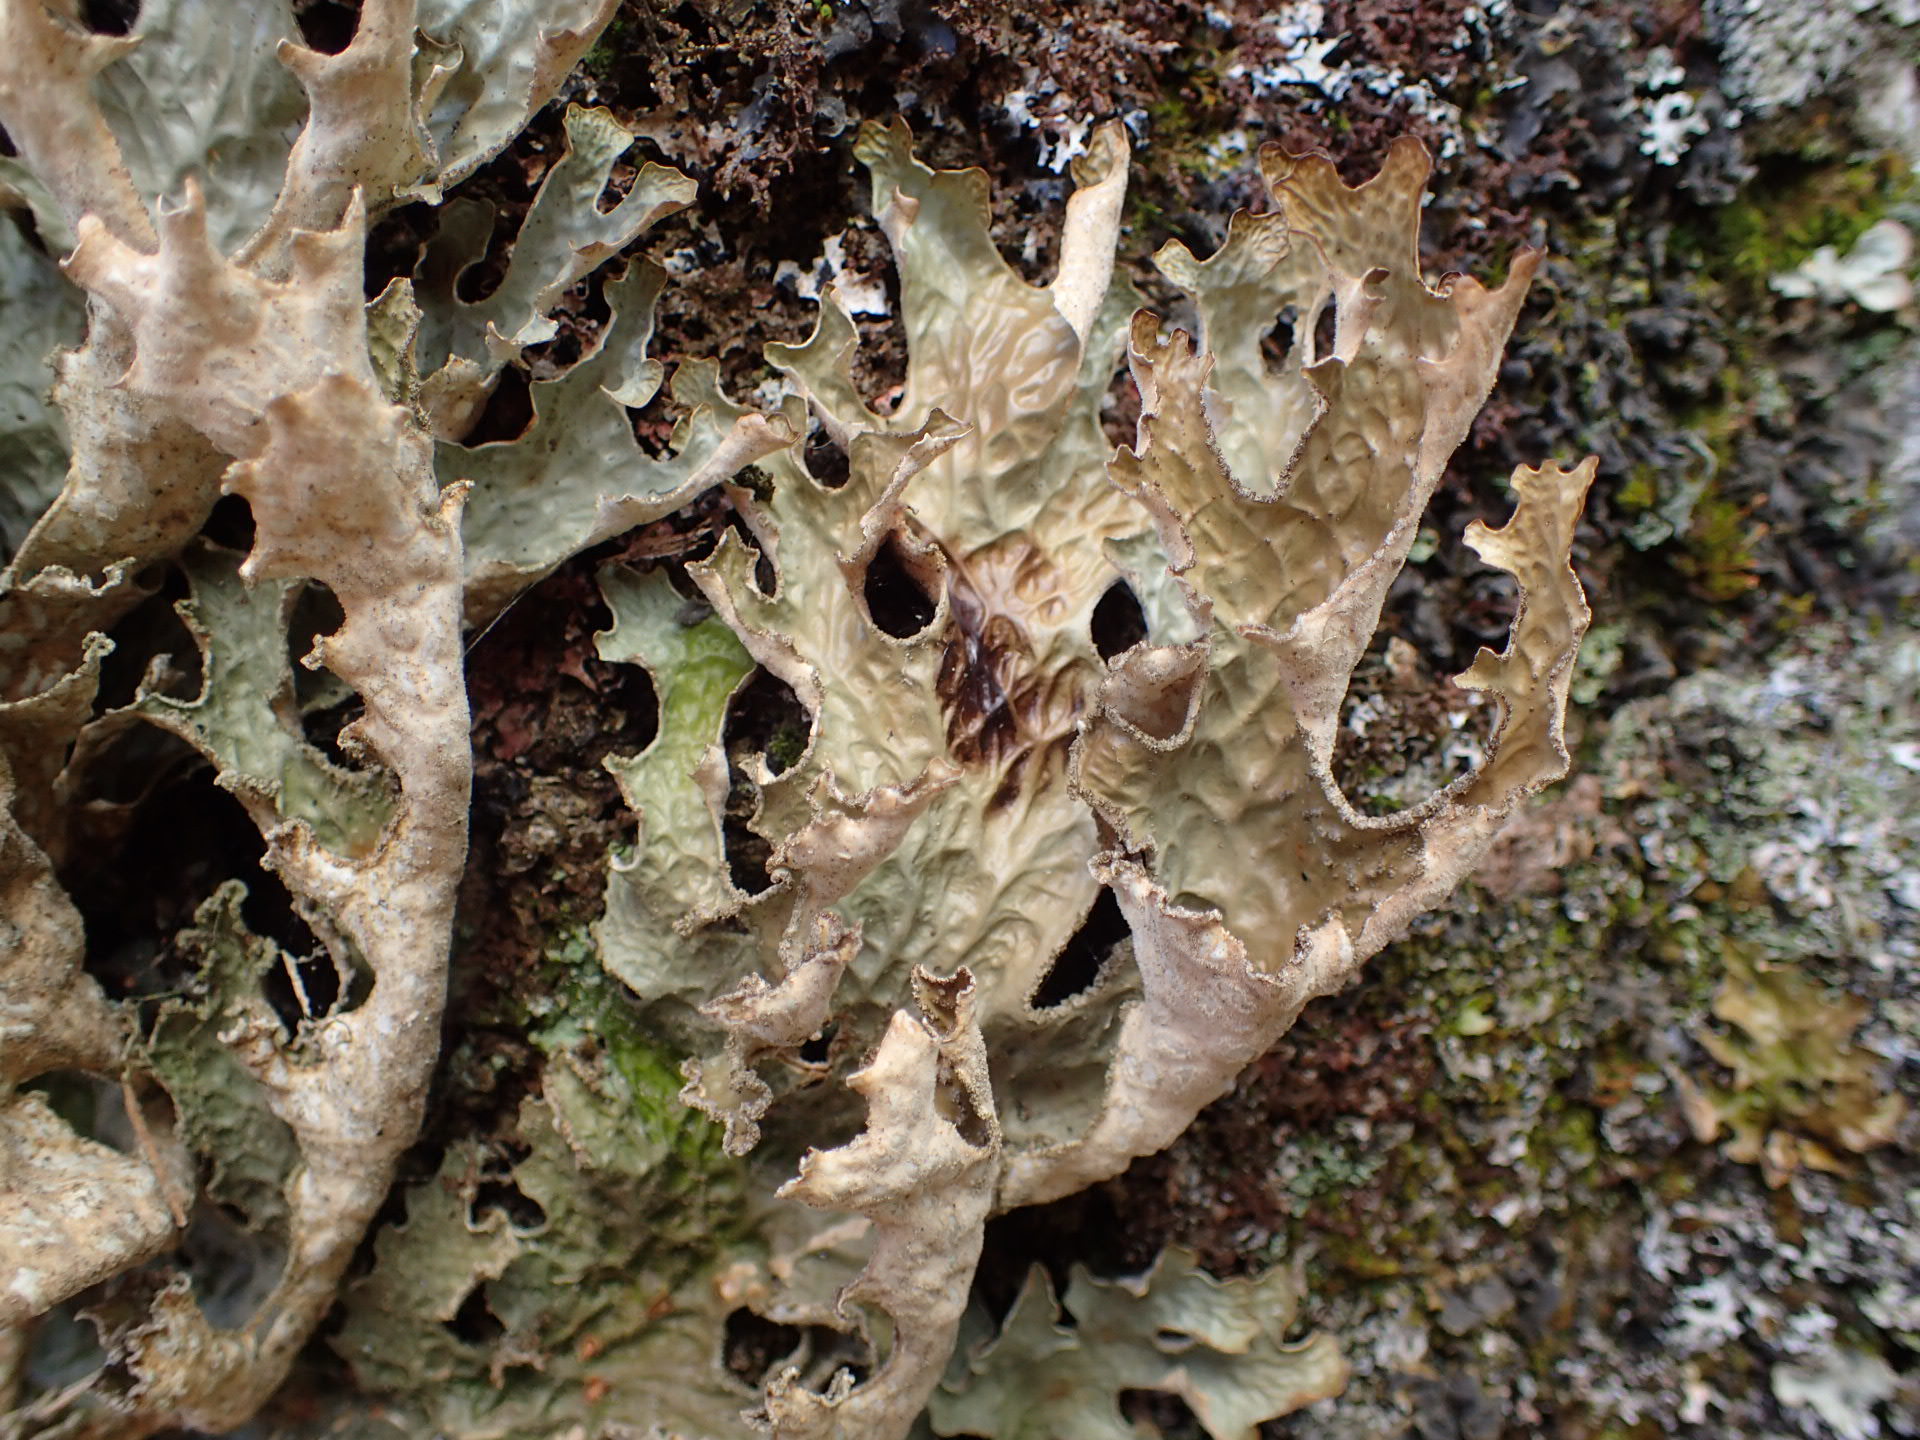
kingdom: Fungi
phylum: Ascomycota
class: Lecanoromycetes
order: Peltigerales
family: Lobariaceae
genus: Lobaria
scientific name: Lobaria pulmonaria
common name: Lungwort
